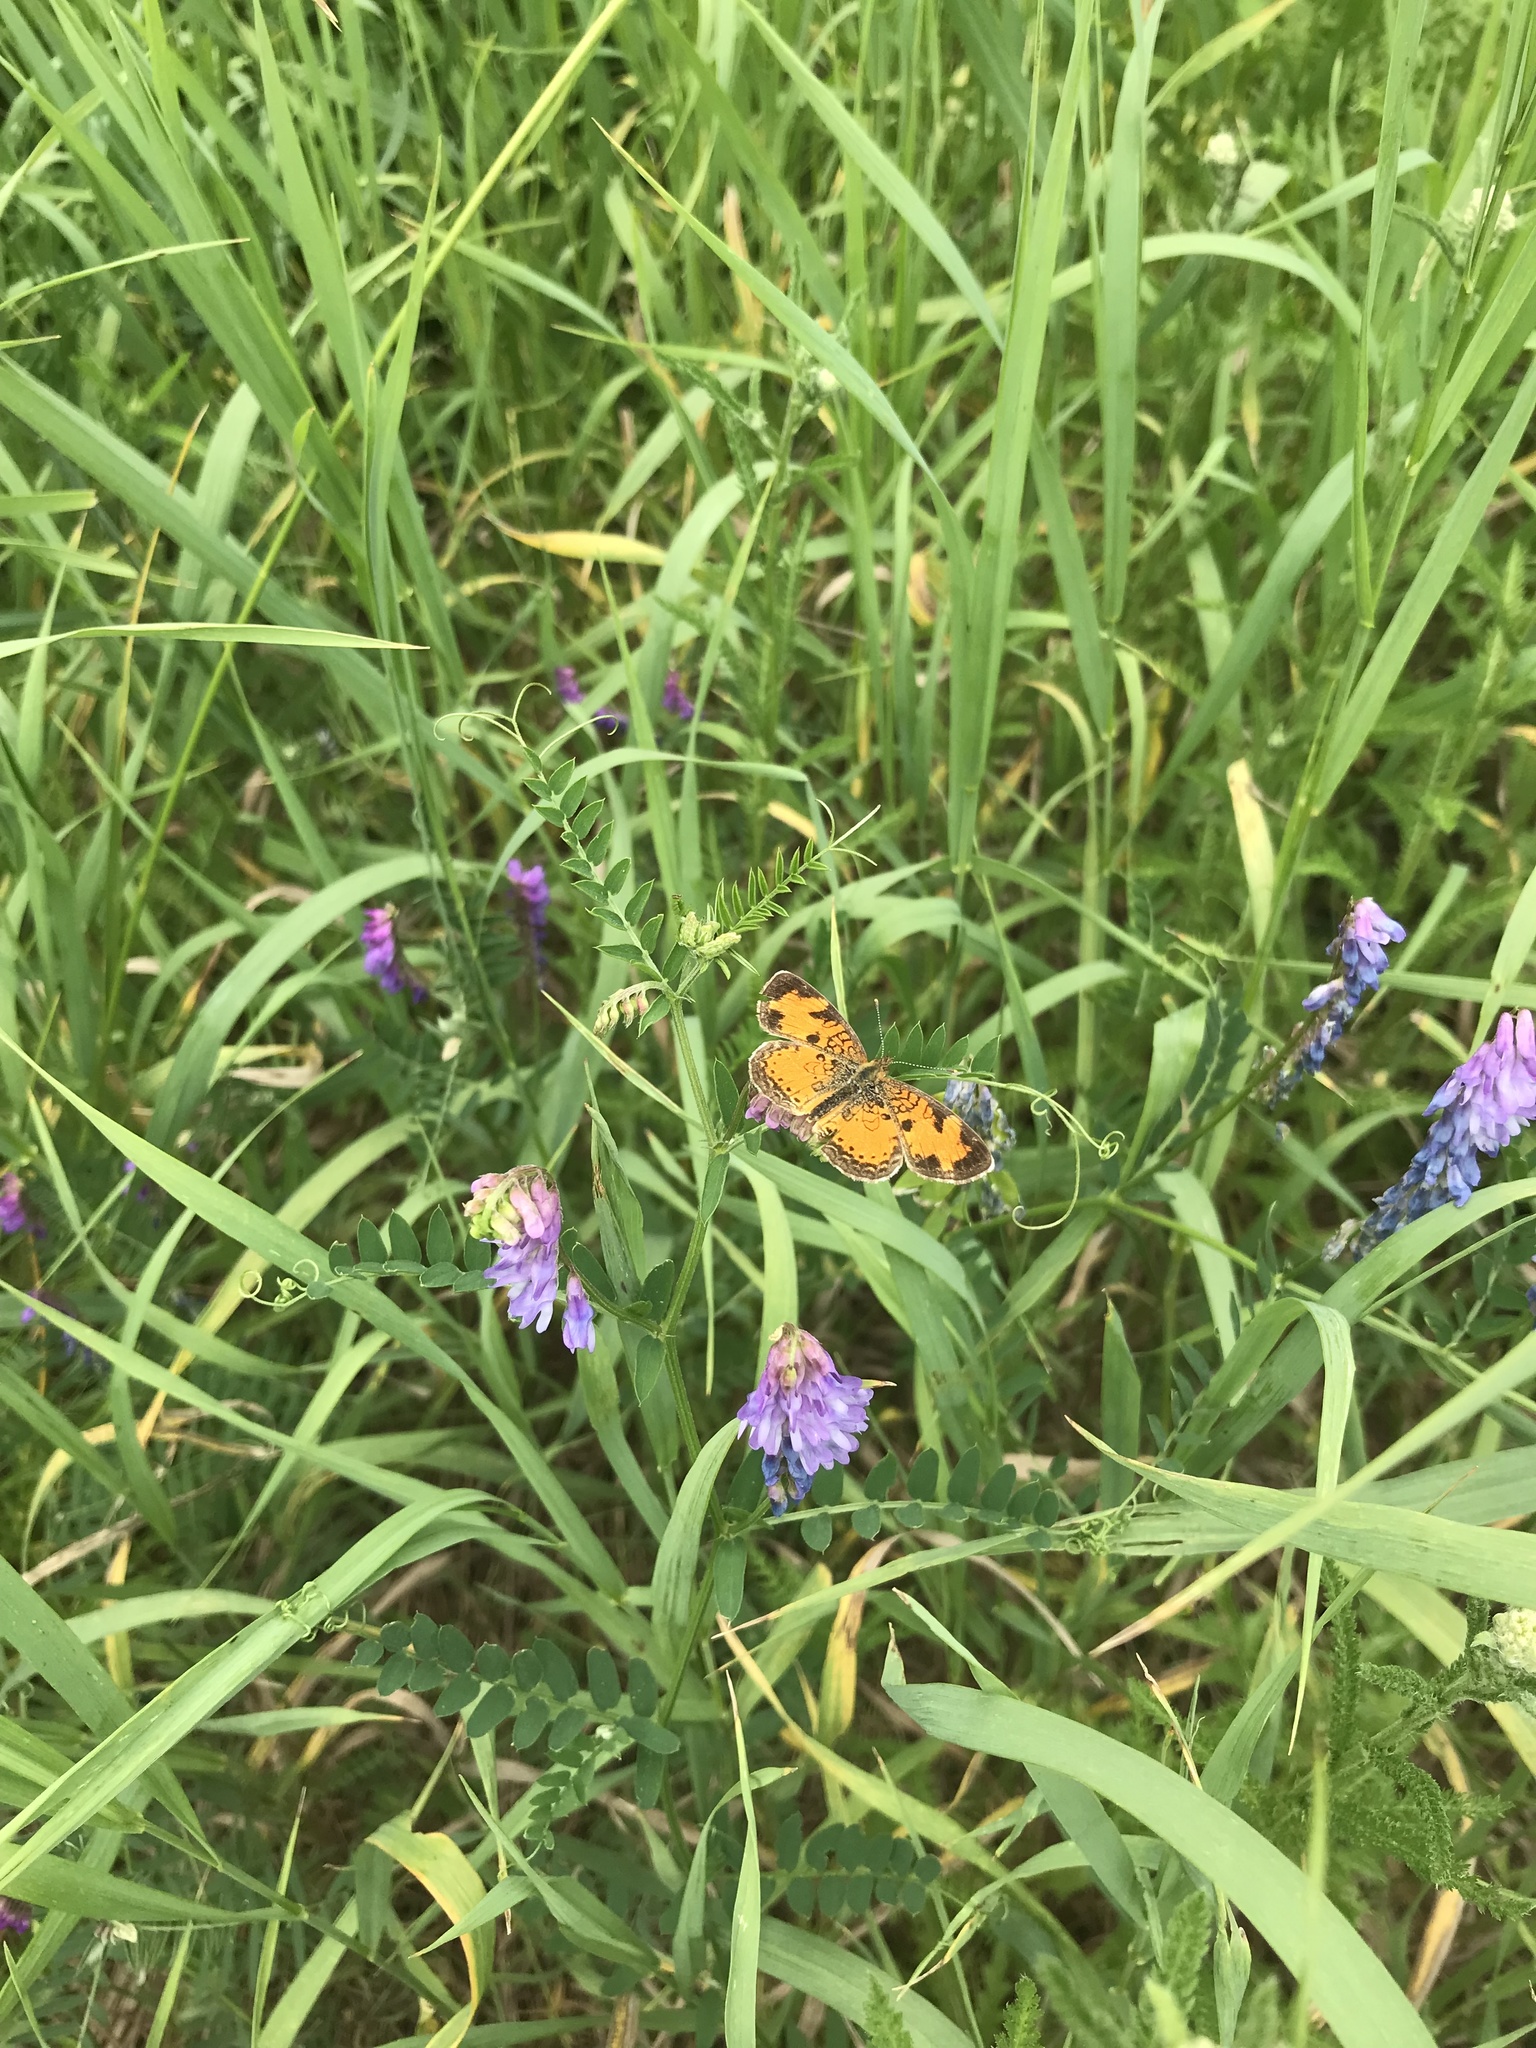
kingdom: Animalia
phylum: Arthropoda
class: Insecta
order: Lepidoptera
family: Nymphalidae
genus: Phyciodes
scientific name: Phyciodes tharos
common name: Pearl crescent
